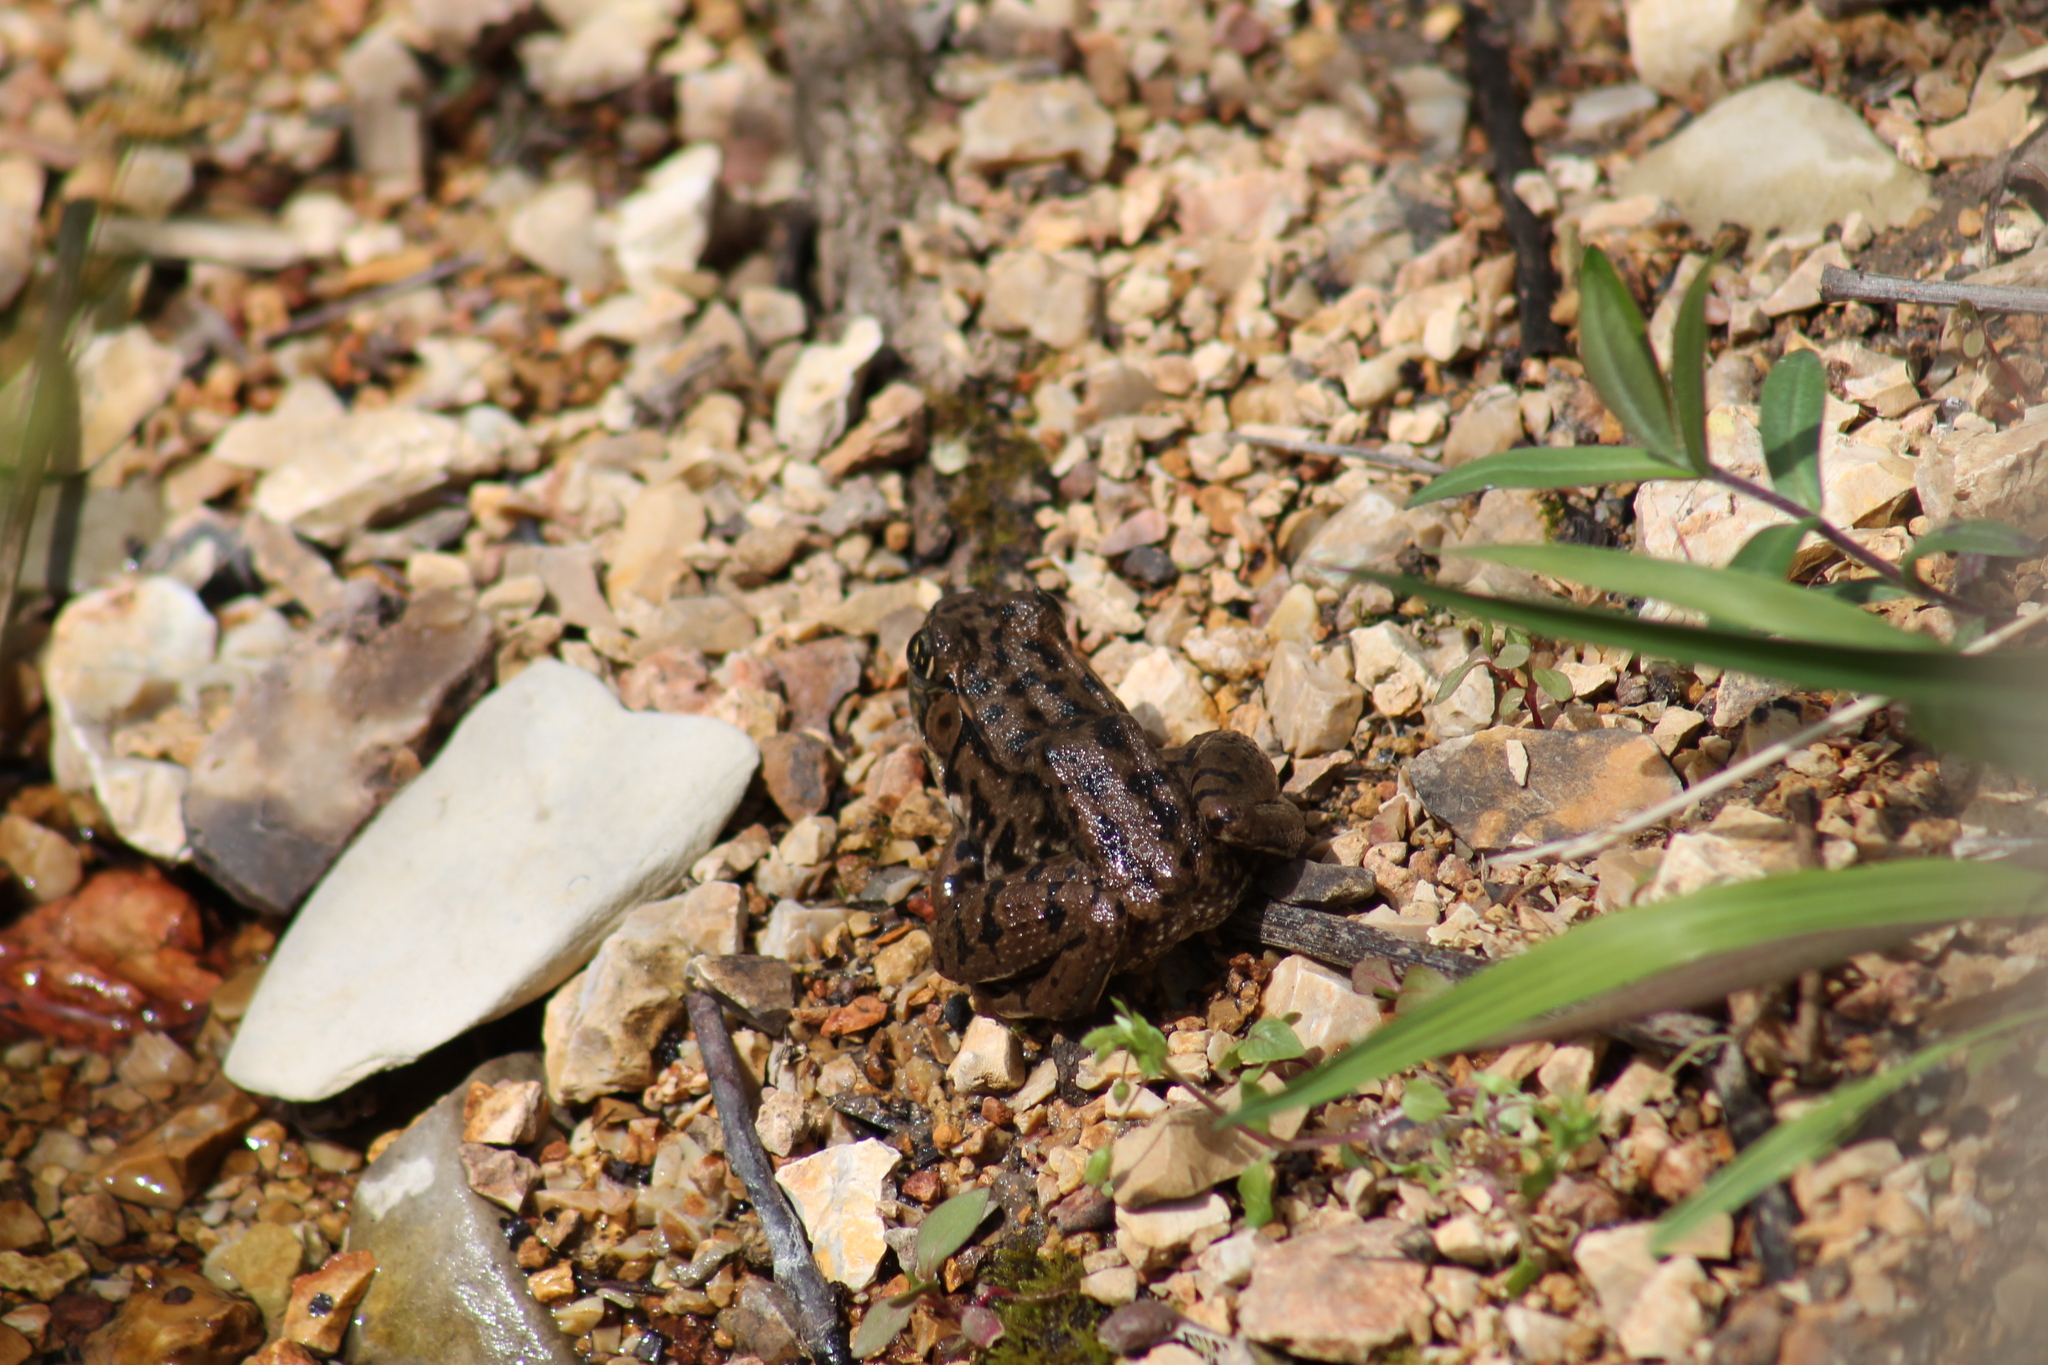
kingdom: Animalia
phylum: Chordata
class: Amphibia
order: Anura
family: Ranidae
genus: Lithobates
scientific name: Lithobates clamitans
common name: Green frog
